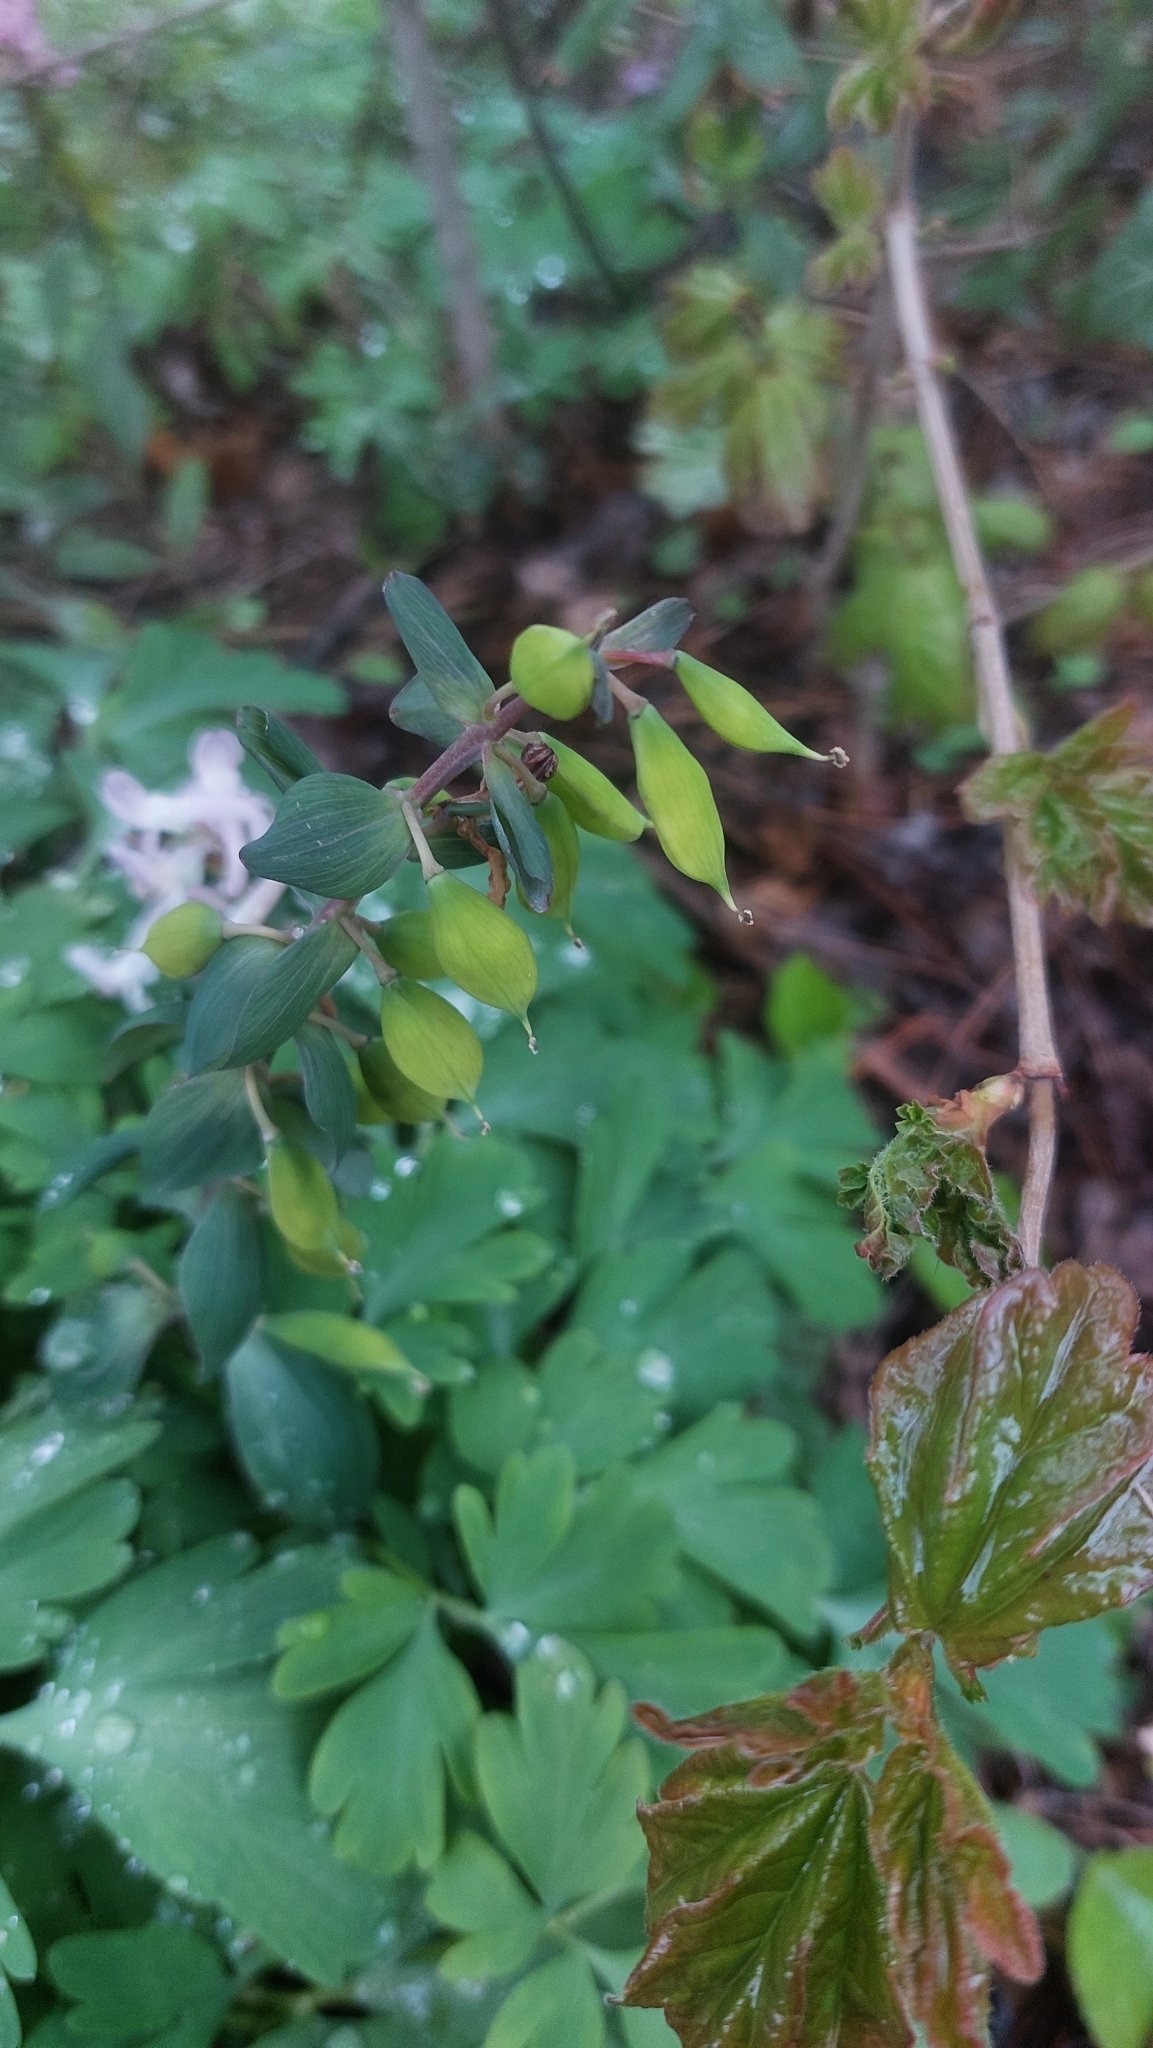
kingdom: Plantae
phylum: Tracheophyta
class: Magnoliopsida
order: Ranunculales
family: Papaveraceae
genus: Corydalis
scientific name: Corydalis cava
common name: Hollowroot
